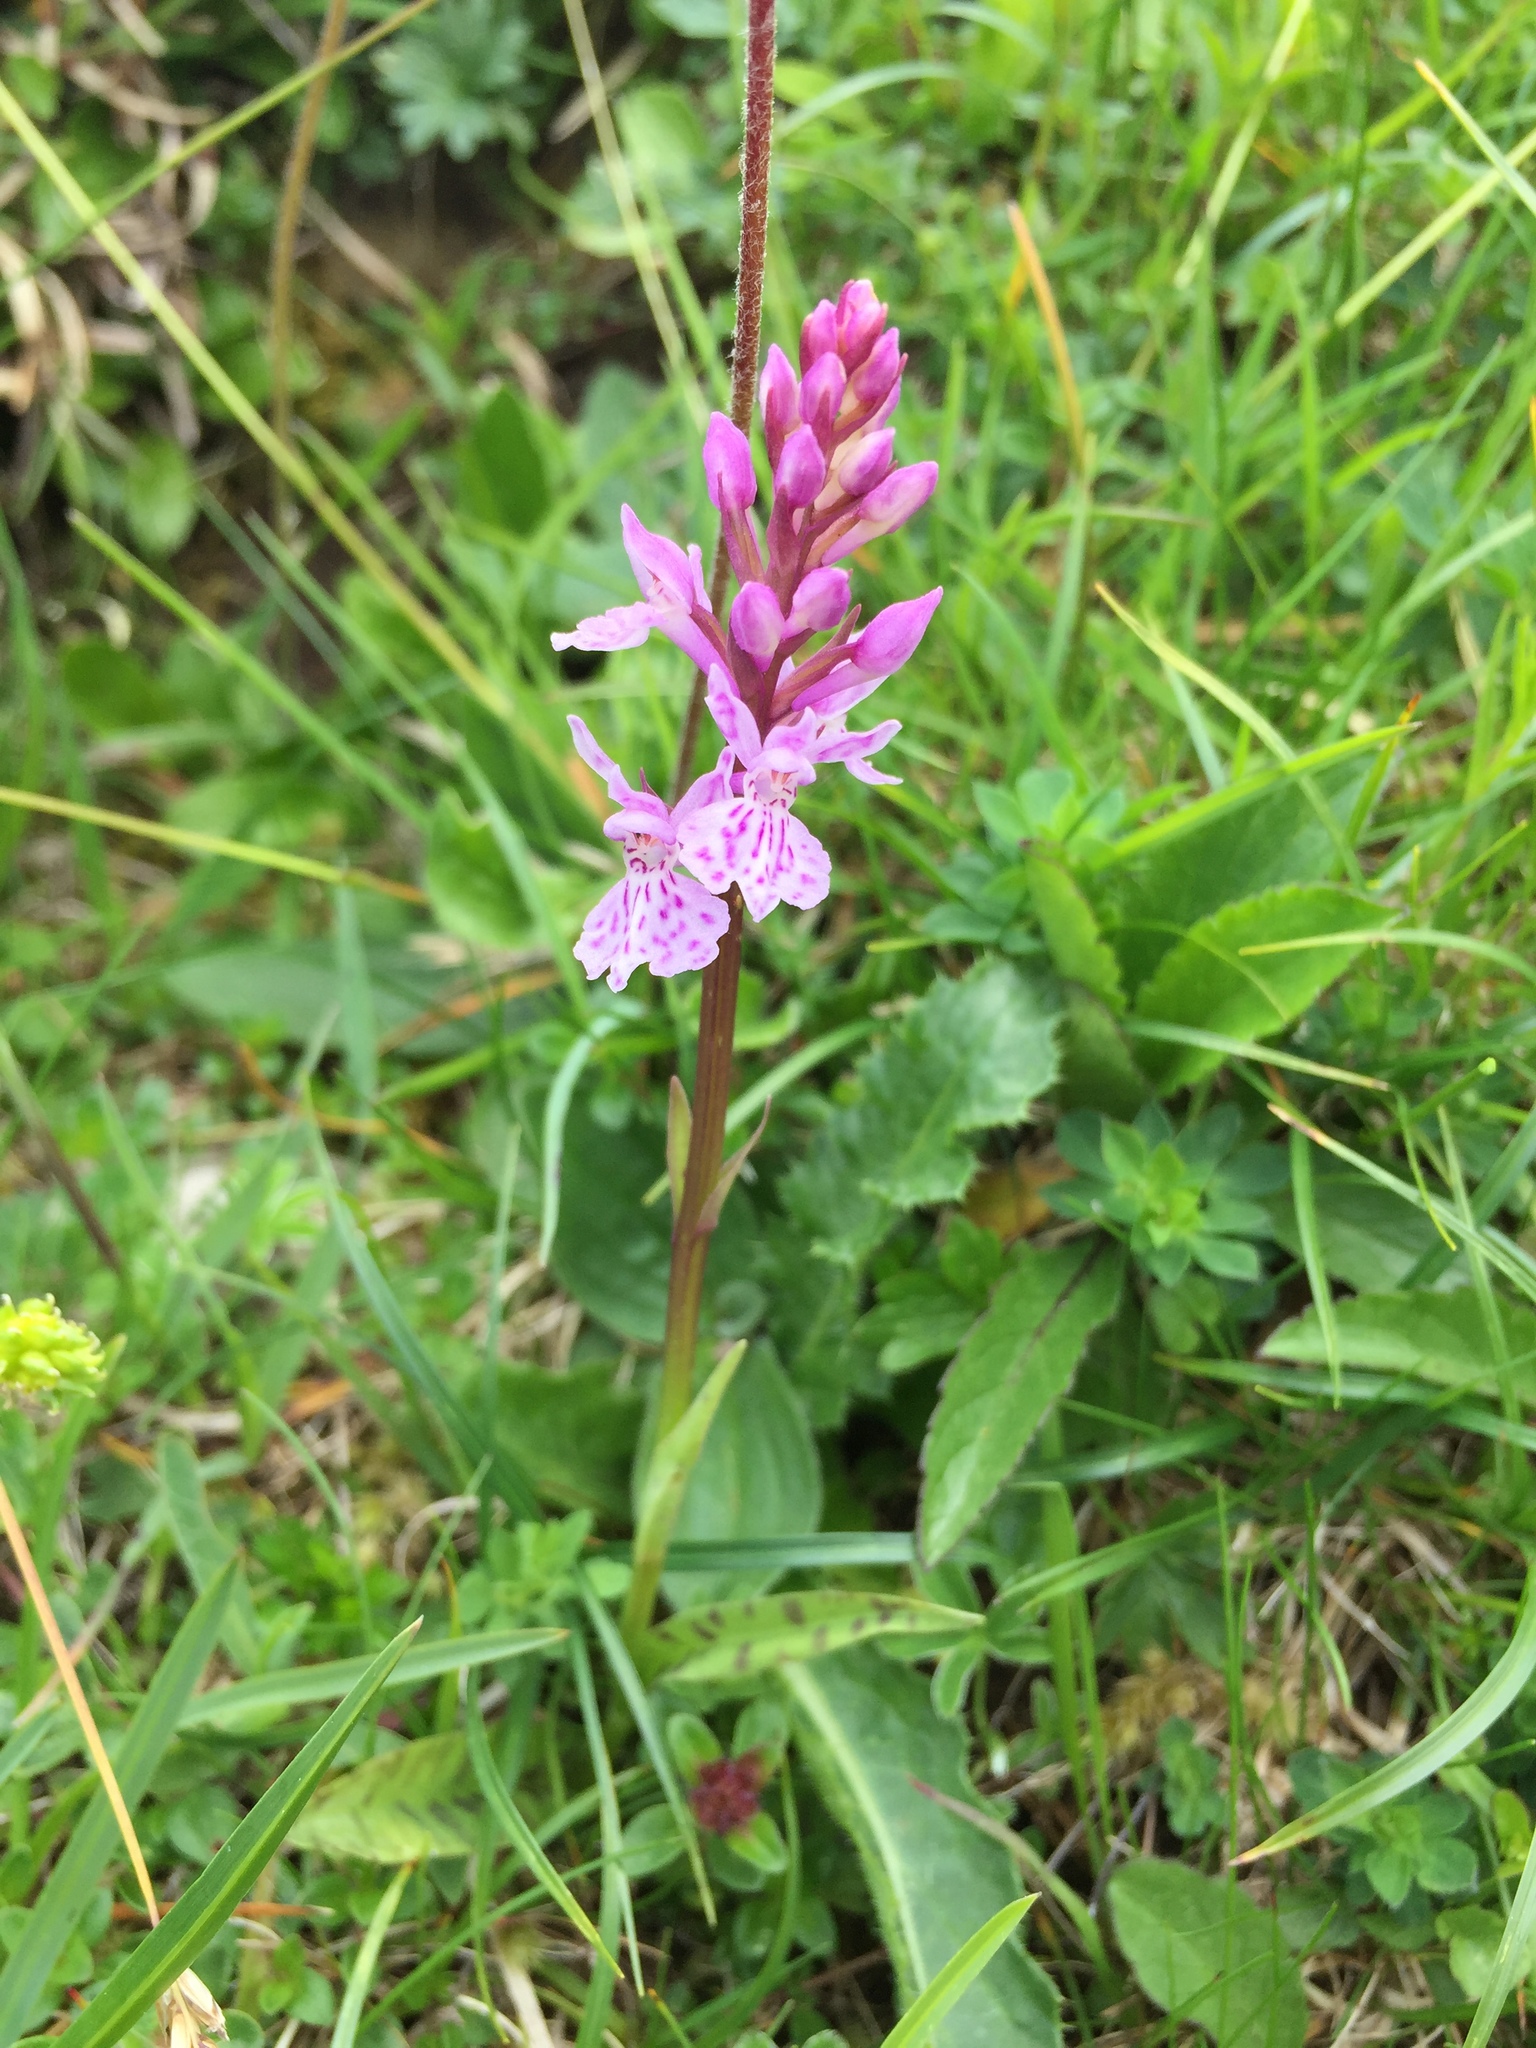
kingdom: Plantae
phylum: Tracheophyta
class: Liliopsida
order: Asparagales
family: Orchidaceae
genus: Dactylorhiza
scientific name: Dactylorhiza maculata
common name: Heath spotted-orchid
